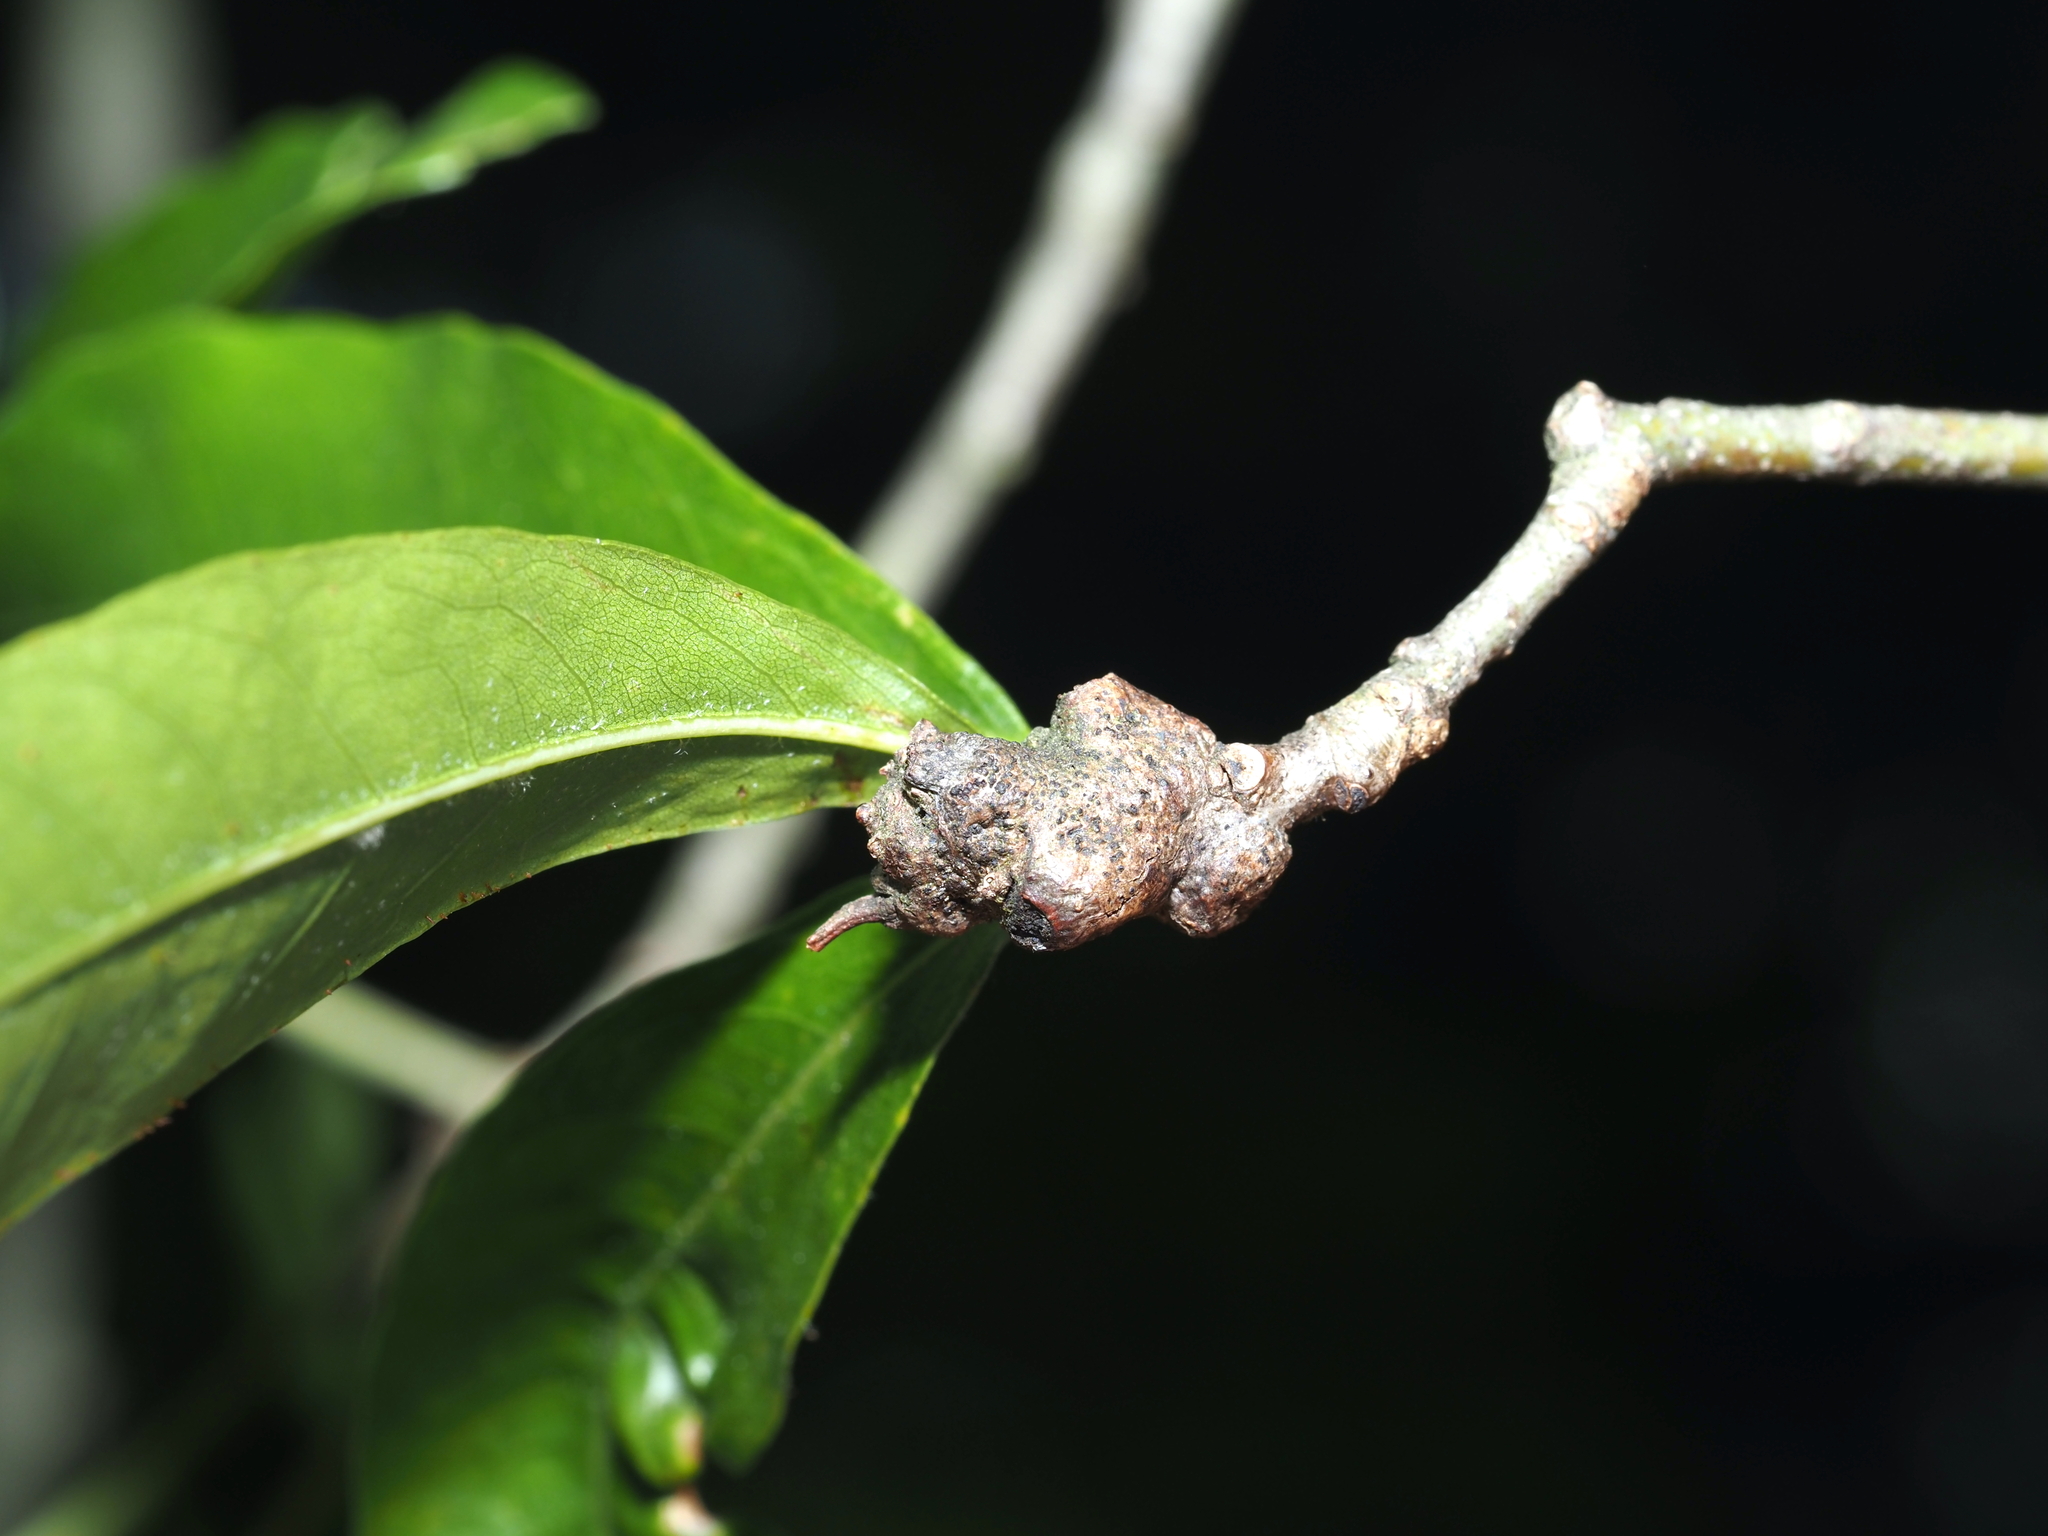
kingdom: Animalia
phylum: Arthropoda
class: Insecta
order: Hymenoptera
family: Cynipidae
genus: Callirhytis
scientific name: Callirhytis
